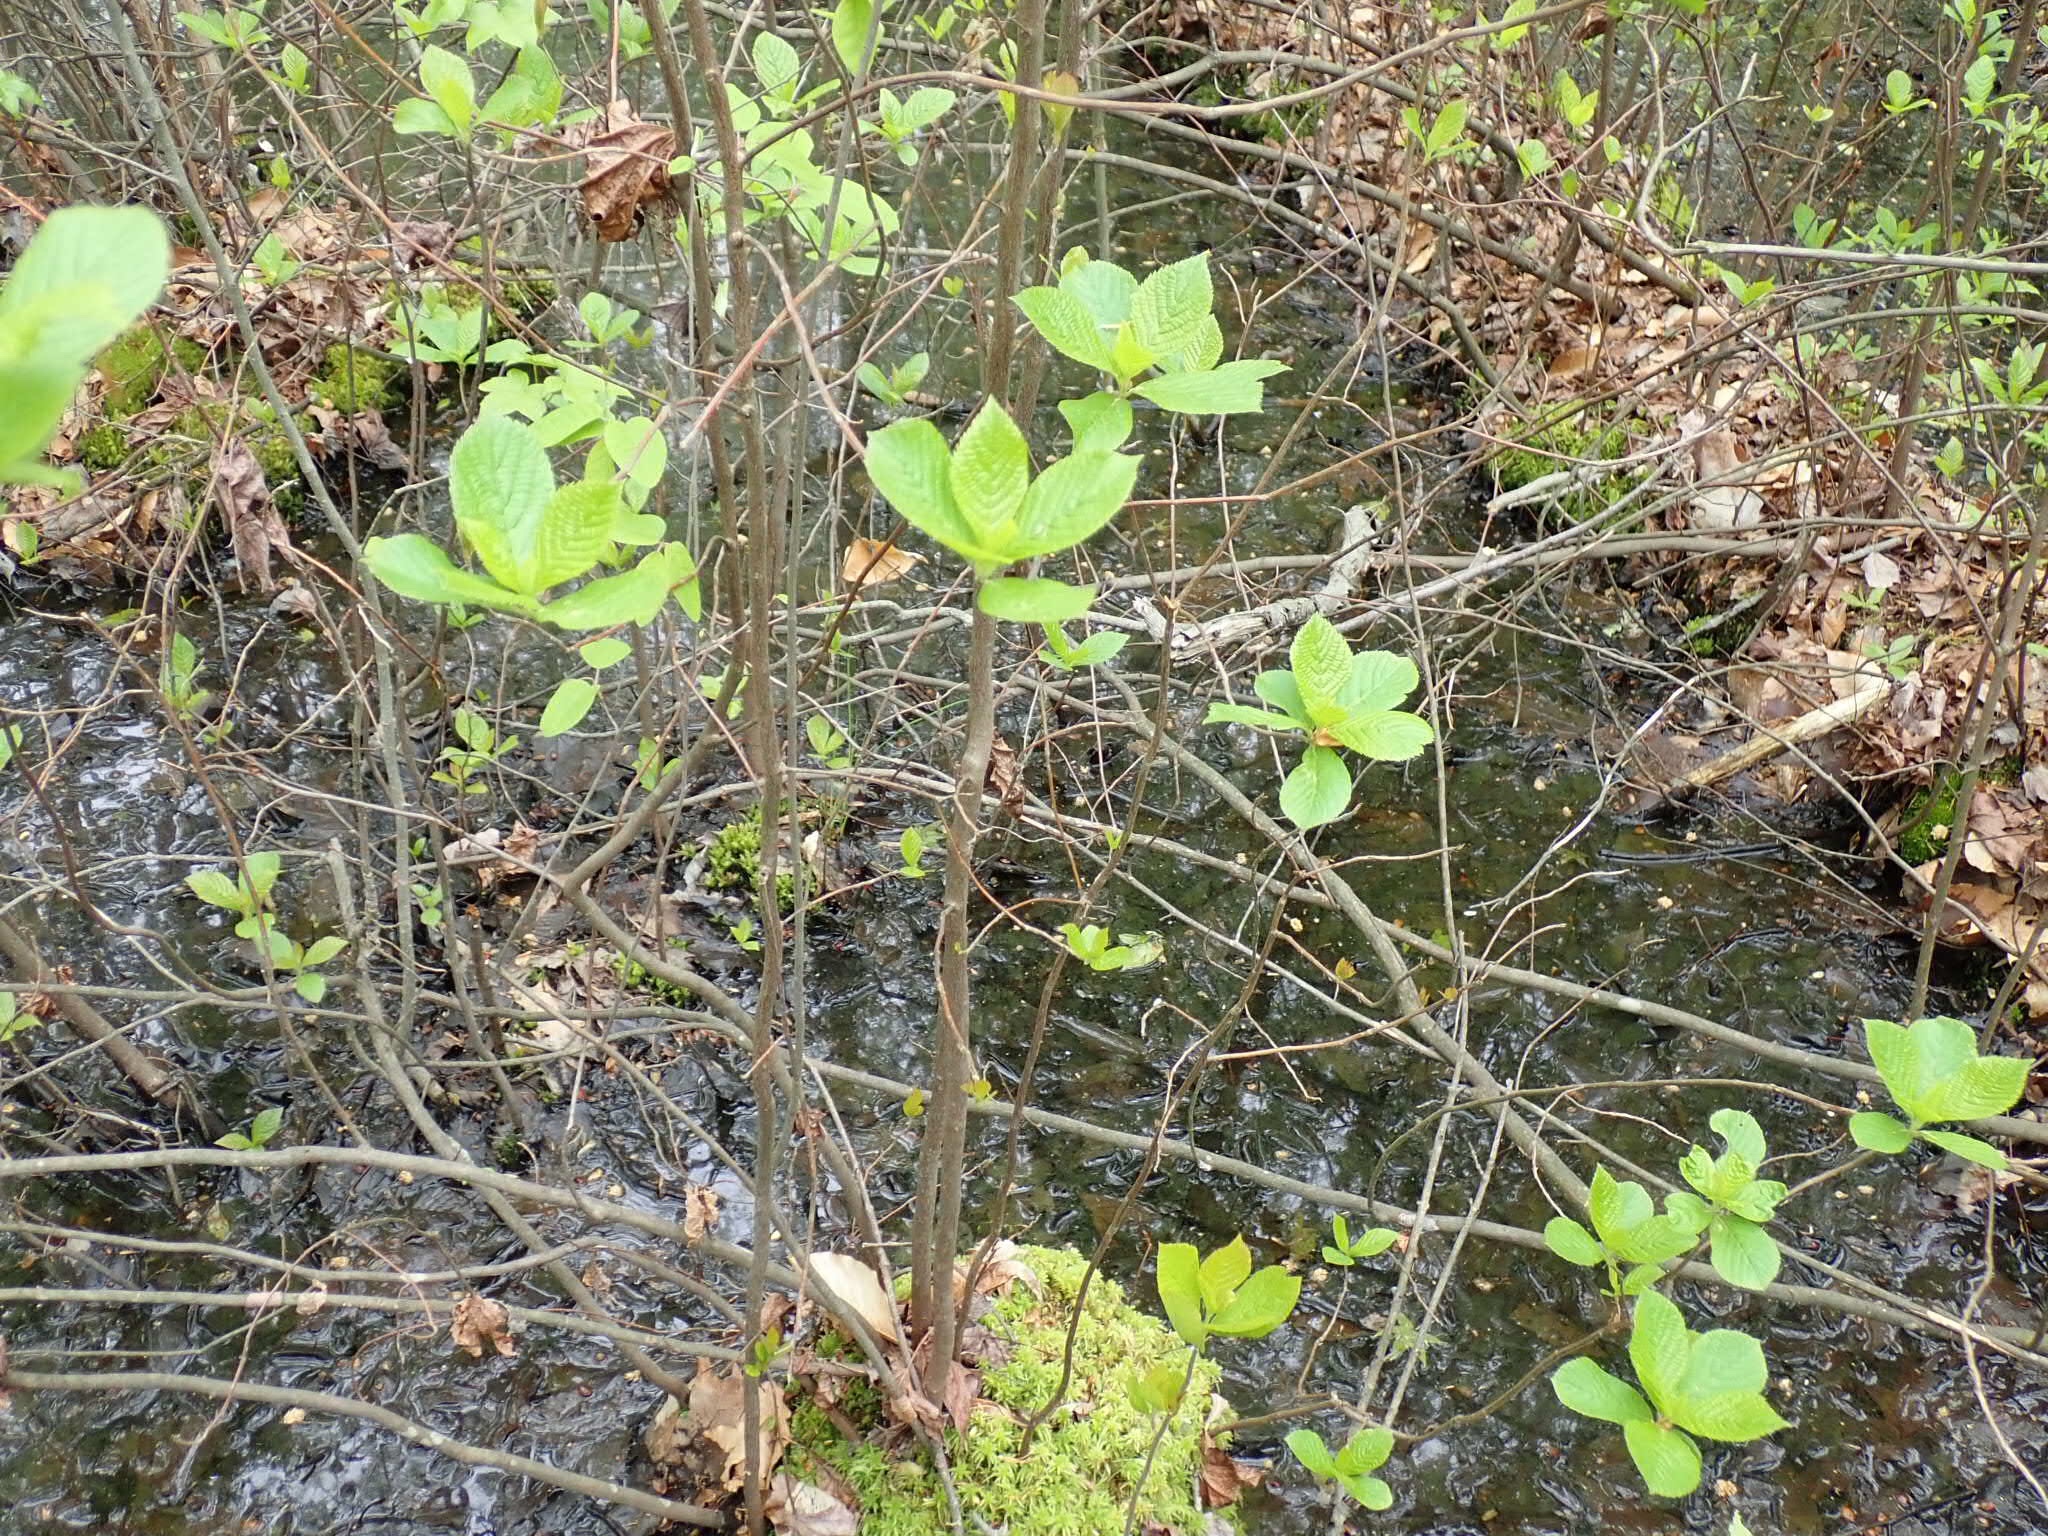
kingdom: Plantae
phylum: Tracheophyta
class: Magnoliopsida
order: Ericales
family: Clethraceae
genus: Clethra
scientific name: Clethra alnifolia
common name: Sweet pepperbush
